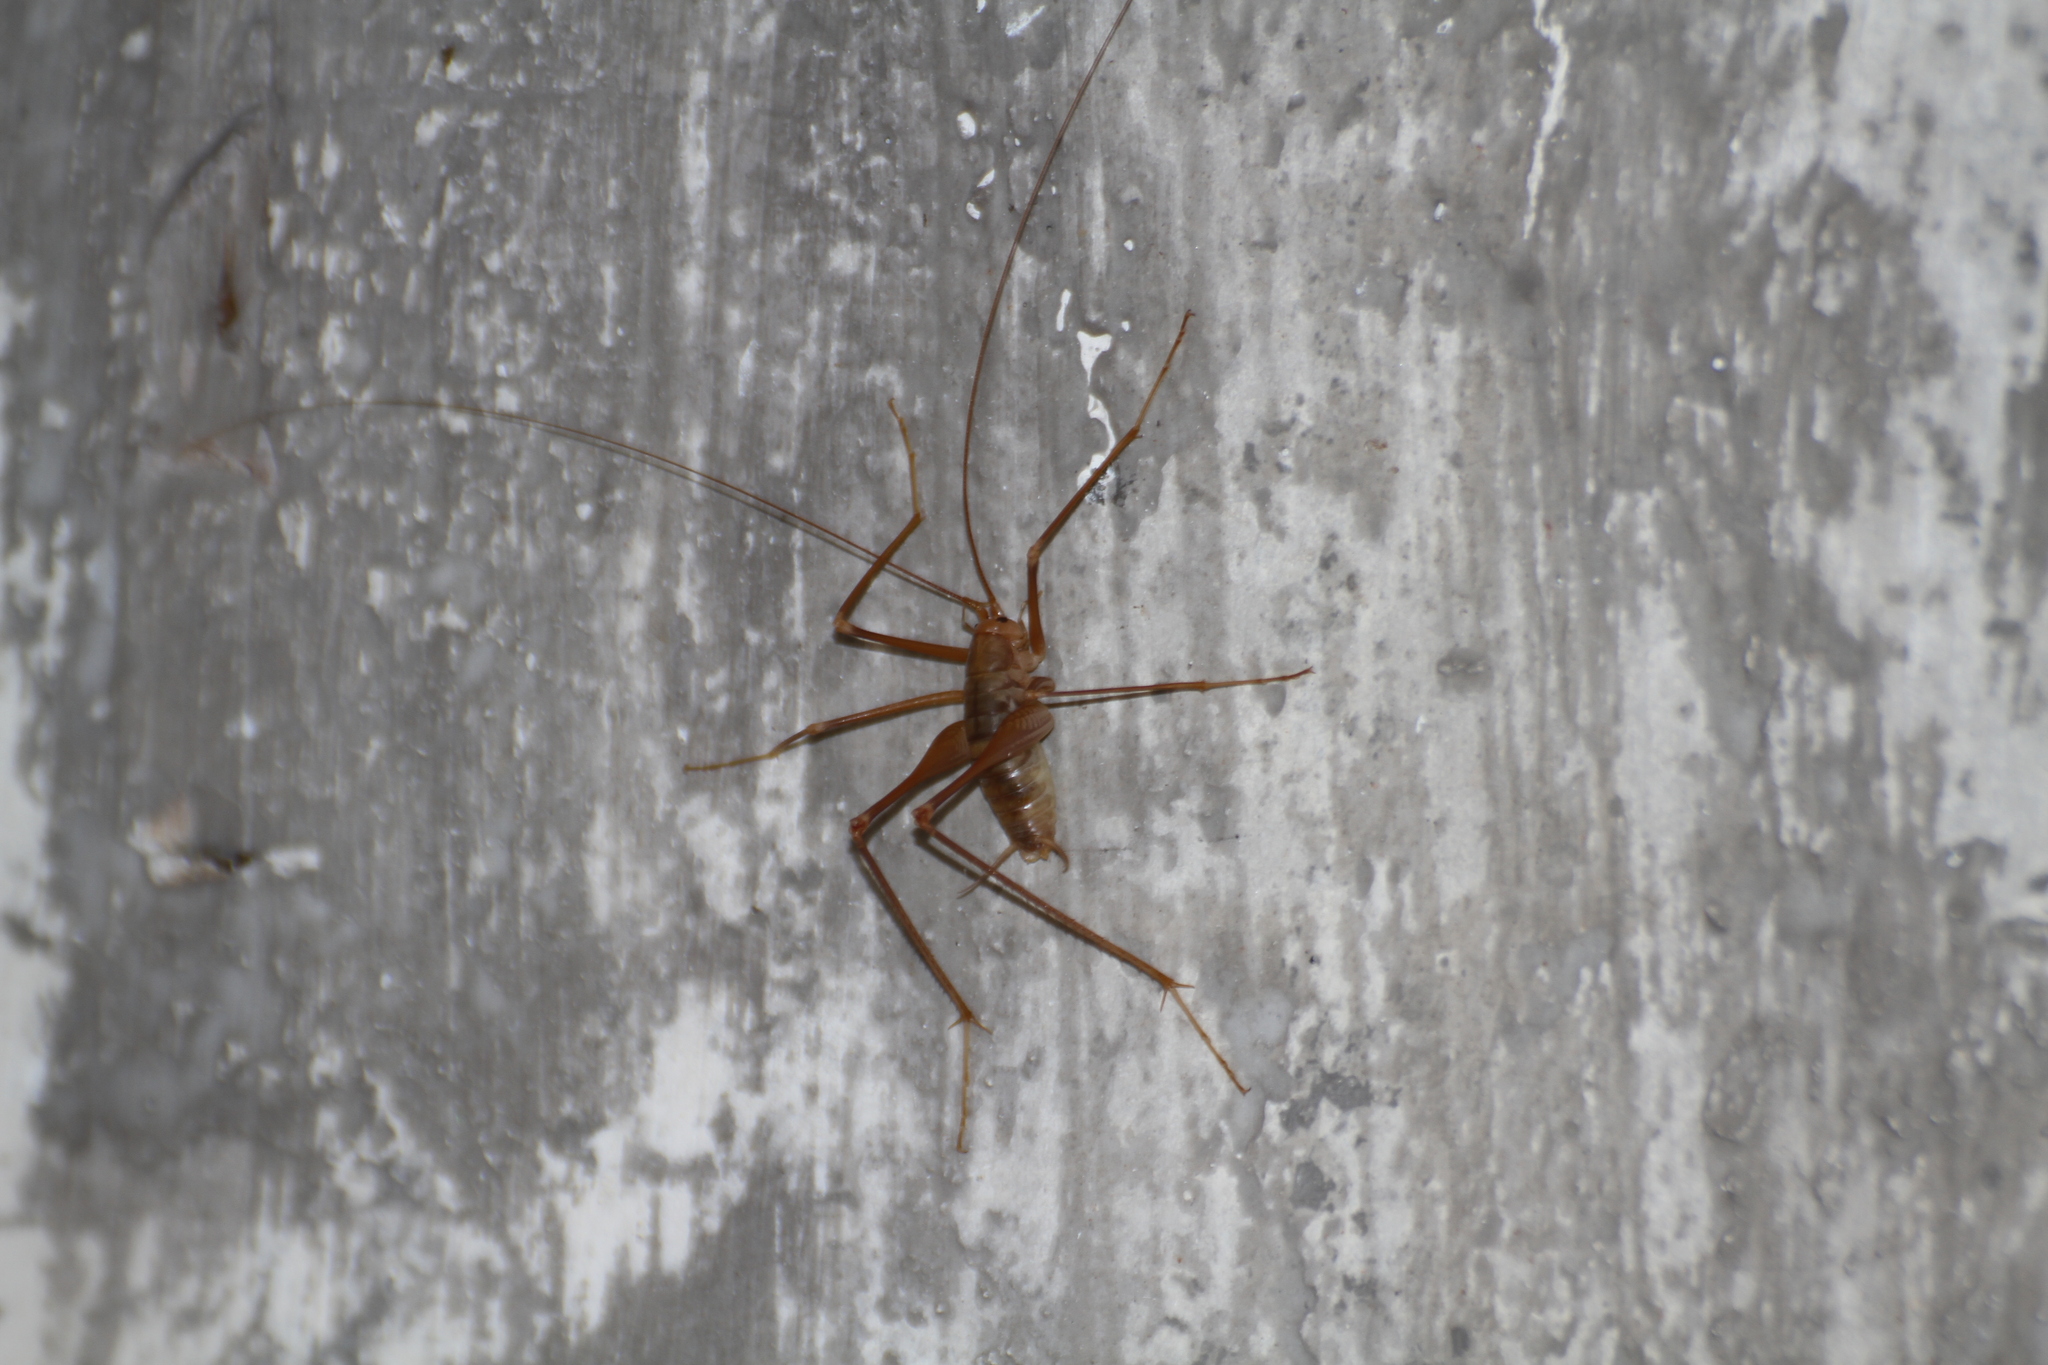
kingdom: Animalia
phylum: Arthropoda
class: Insecta
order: Orthoptera
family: Rhaphidophoridae
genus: Dolichopoda
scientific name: Dolichopoda azami
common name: Azam's cave-cricket
